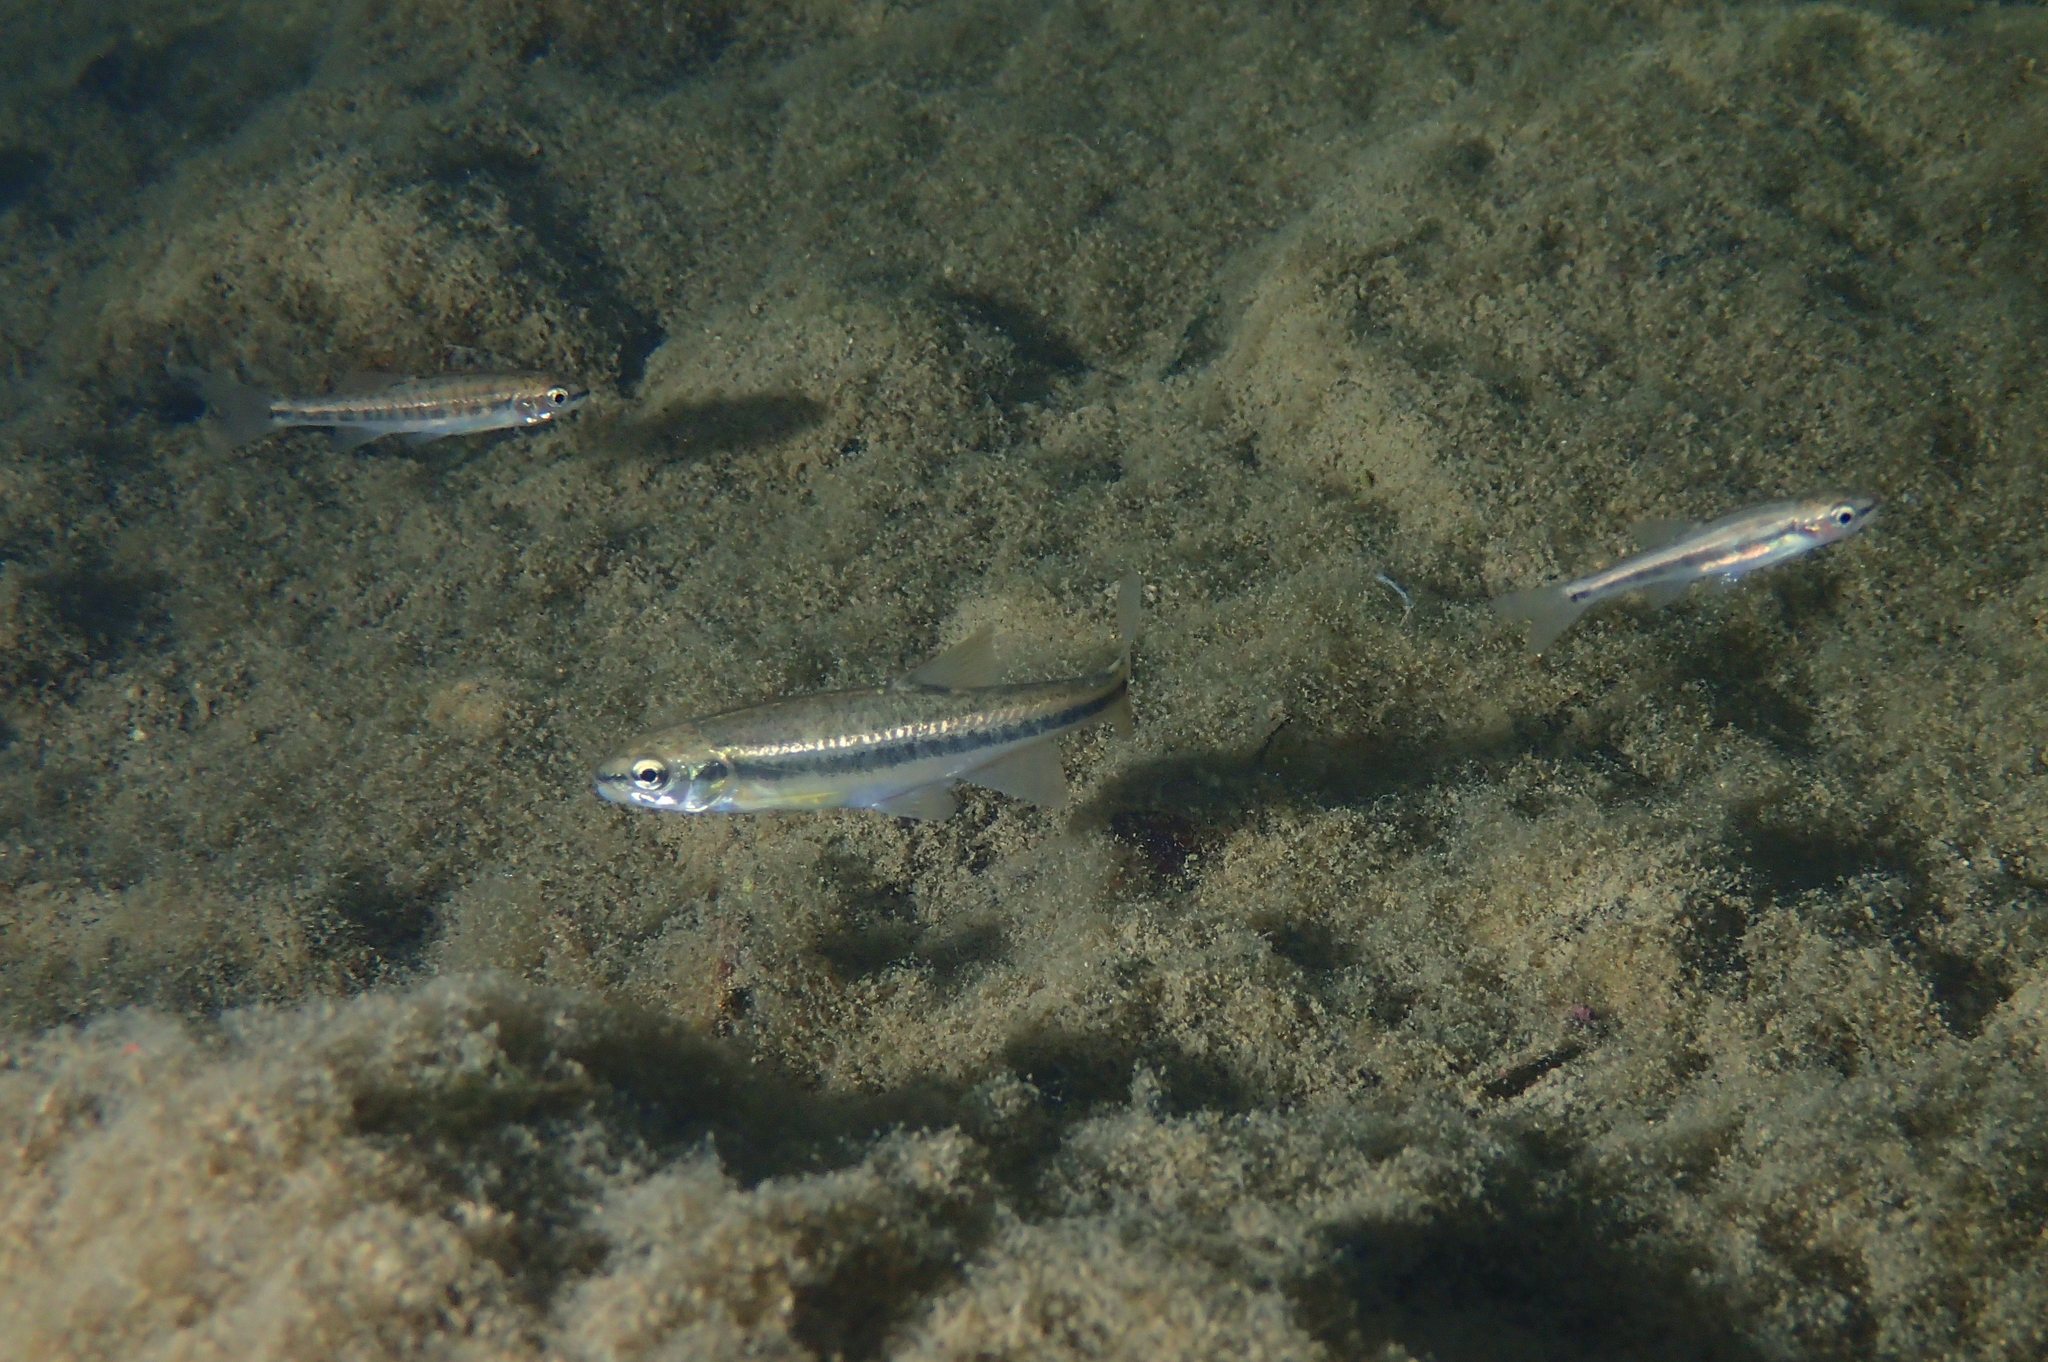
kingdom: Animalia
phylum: Chordata
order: Cypriniformes
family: Cyprinidae
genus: Phoxinus
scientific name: Phoxinus bigerri
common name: Adour minnow
